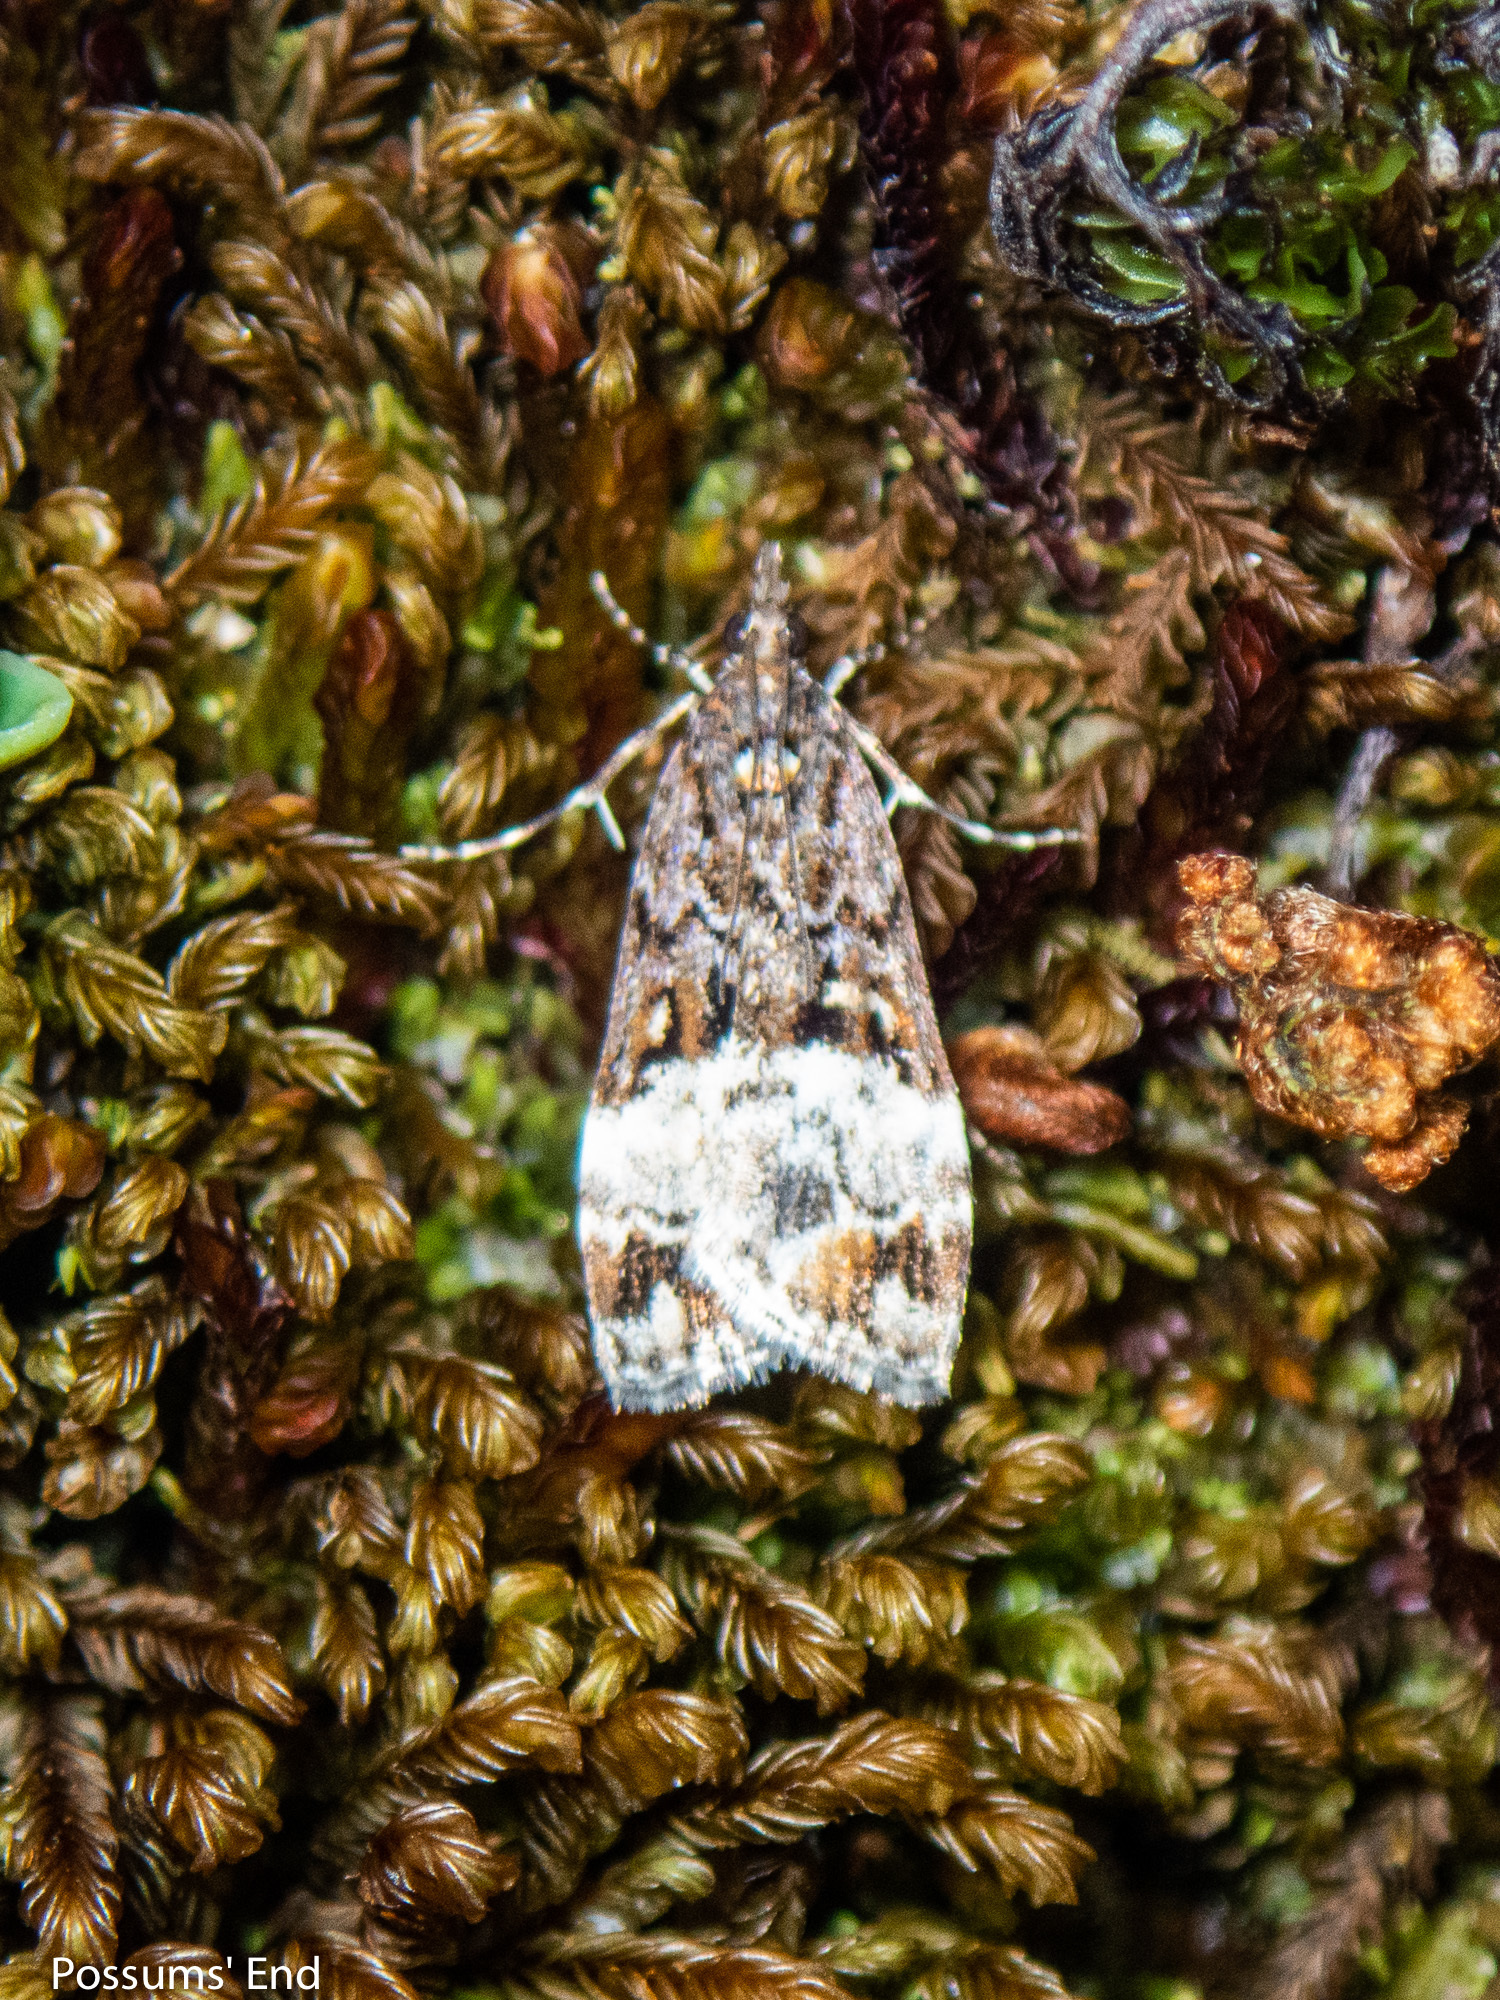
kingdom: Animalia
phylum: Arthropoda
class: Insecta
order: Lepidoptera
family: Crambidae
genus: Scoparia
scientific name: Scoparia minusculalis
